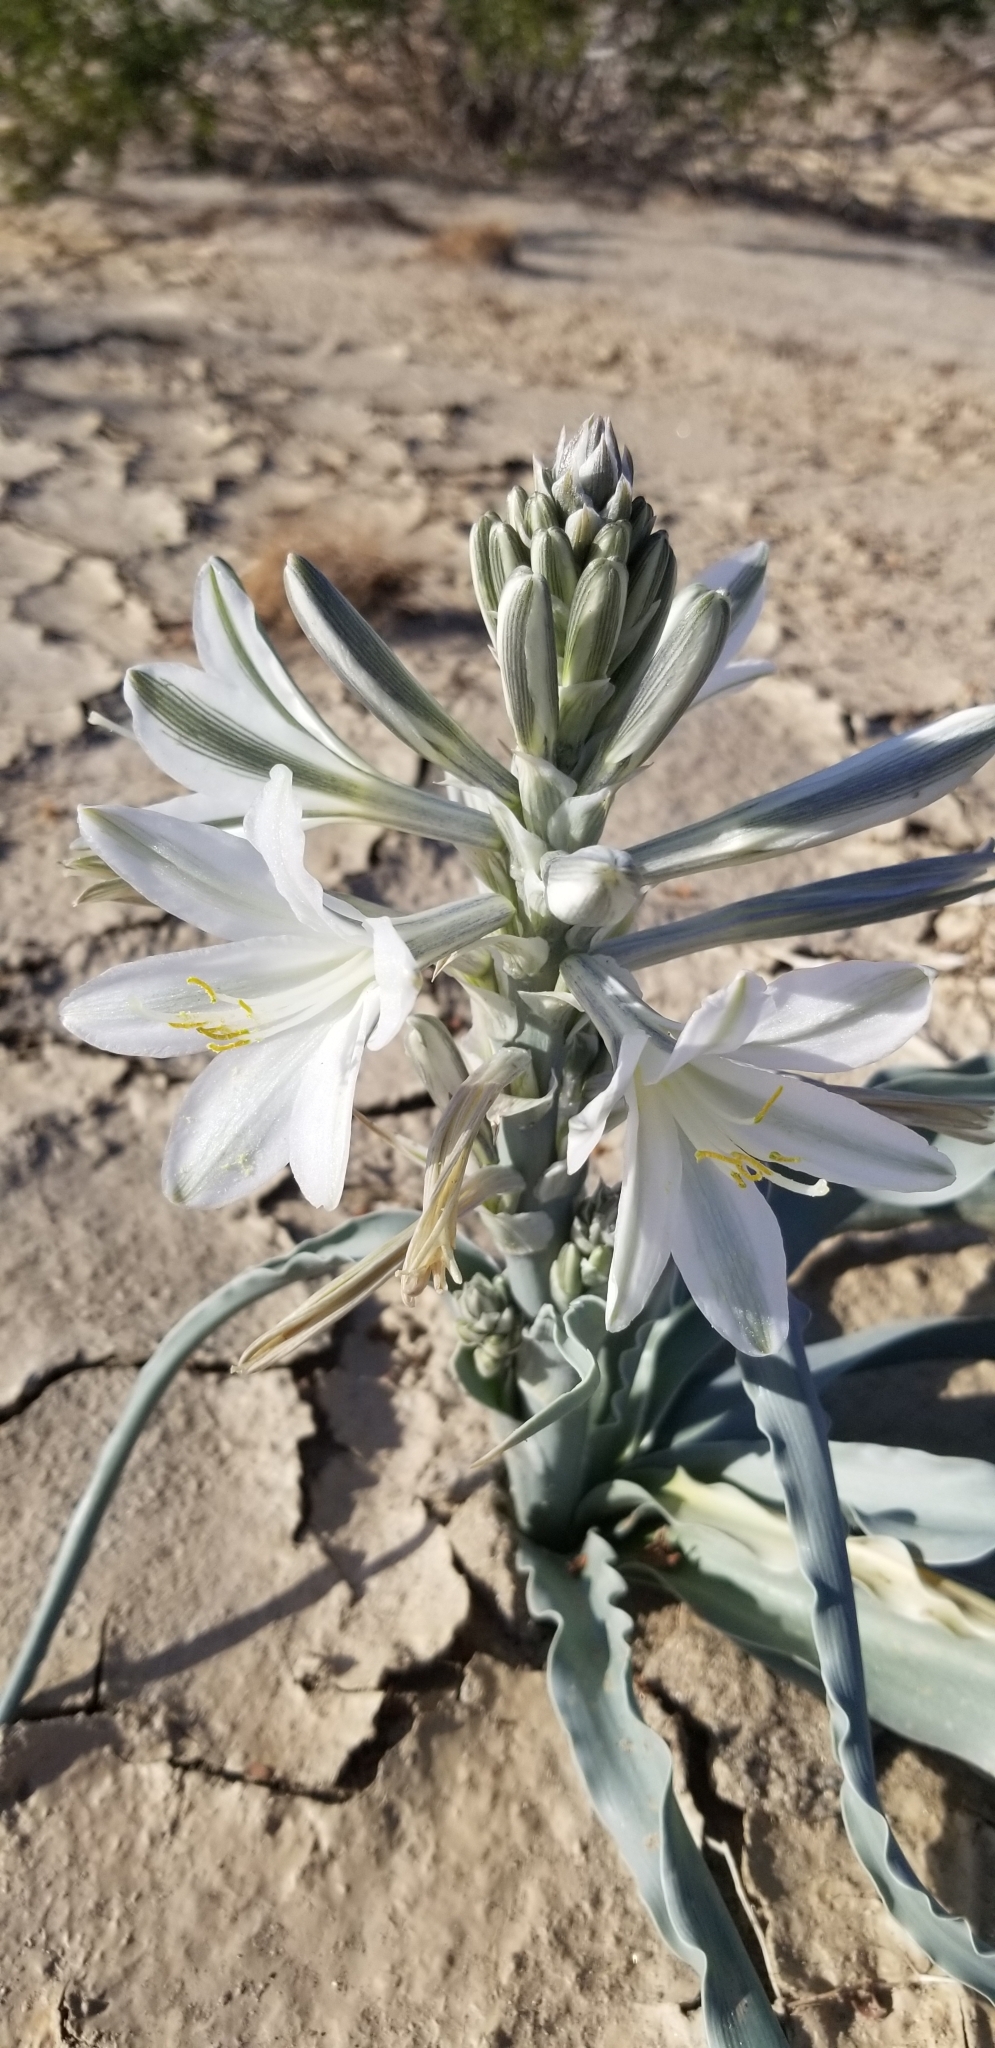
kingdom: Plantae
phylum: Tracheophyta
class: Liliopsida
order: Asparagales
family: Asparagaceae
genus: Hesperocallis
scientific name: Hesperocallis undulata
